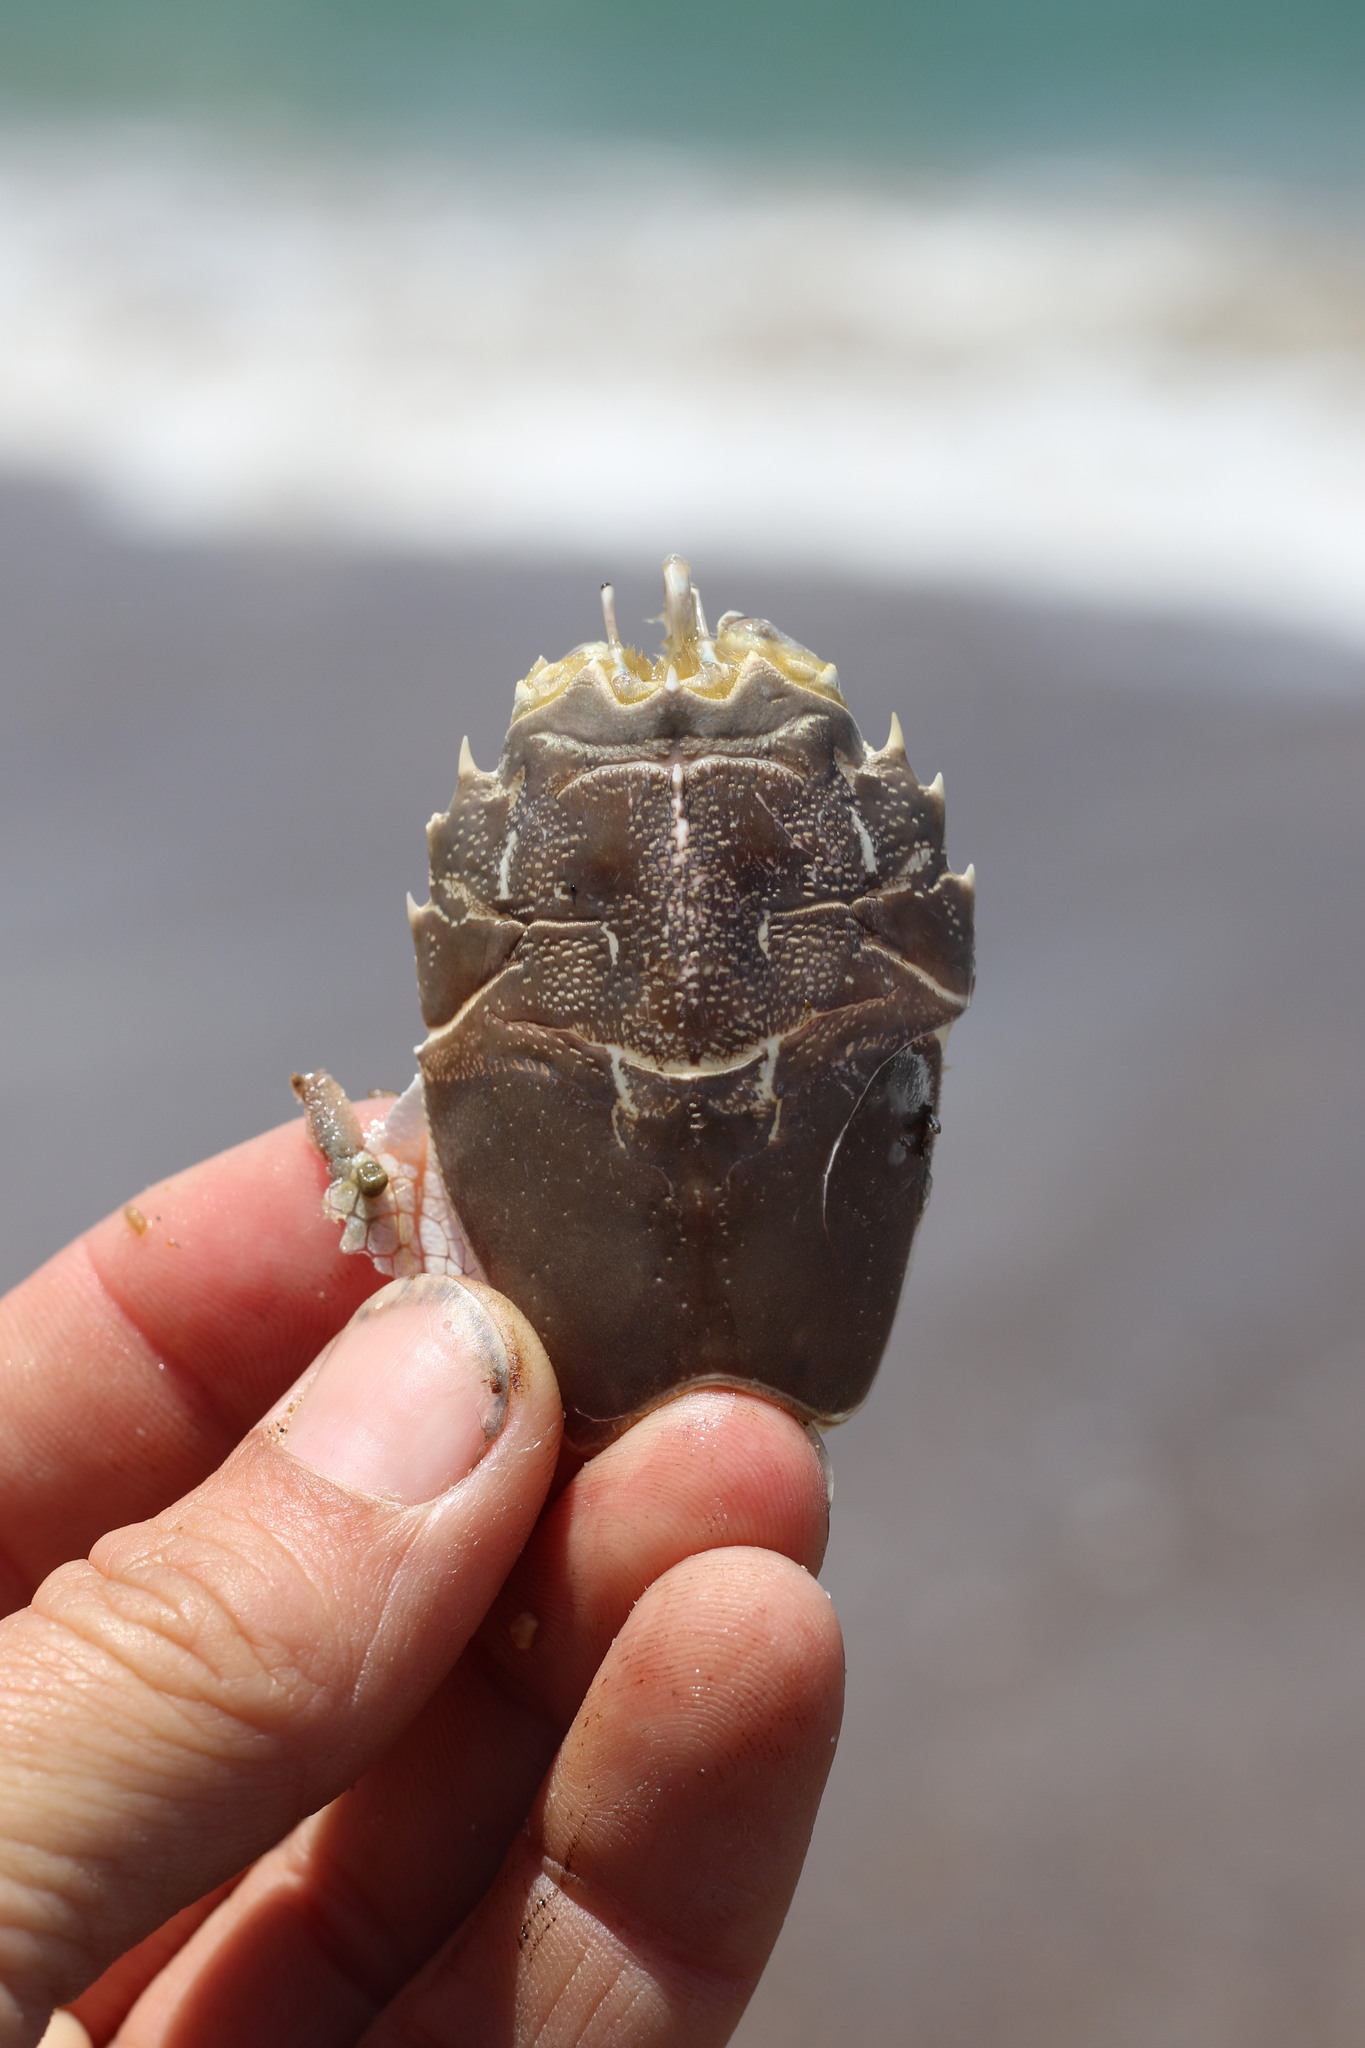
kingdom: Animalia
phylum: Arthropoda
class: Malacostraca
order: Decapoda
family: Blepharipodidae
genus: Blepharipoda
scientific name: Blepharipoda occidentalis
